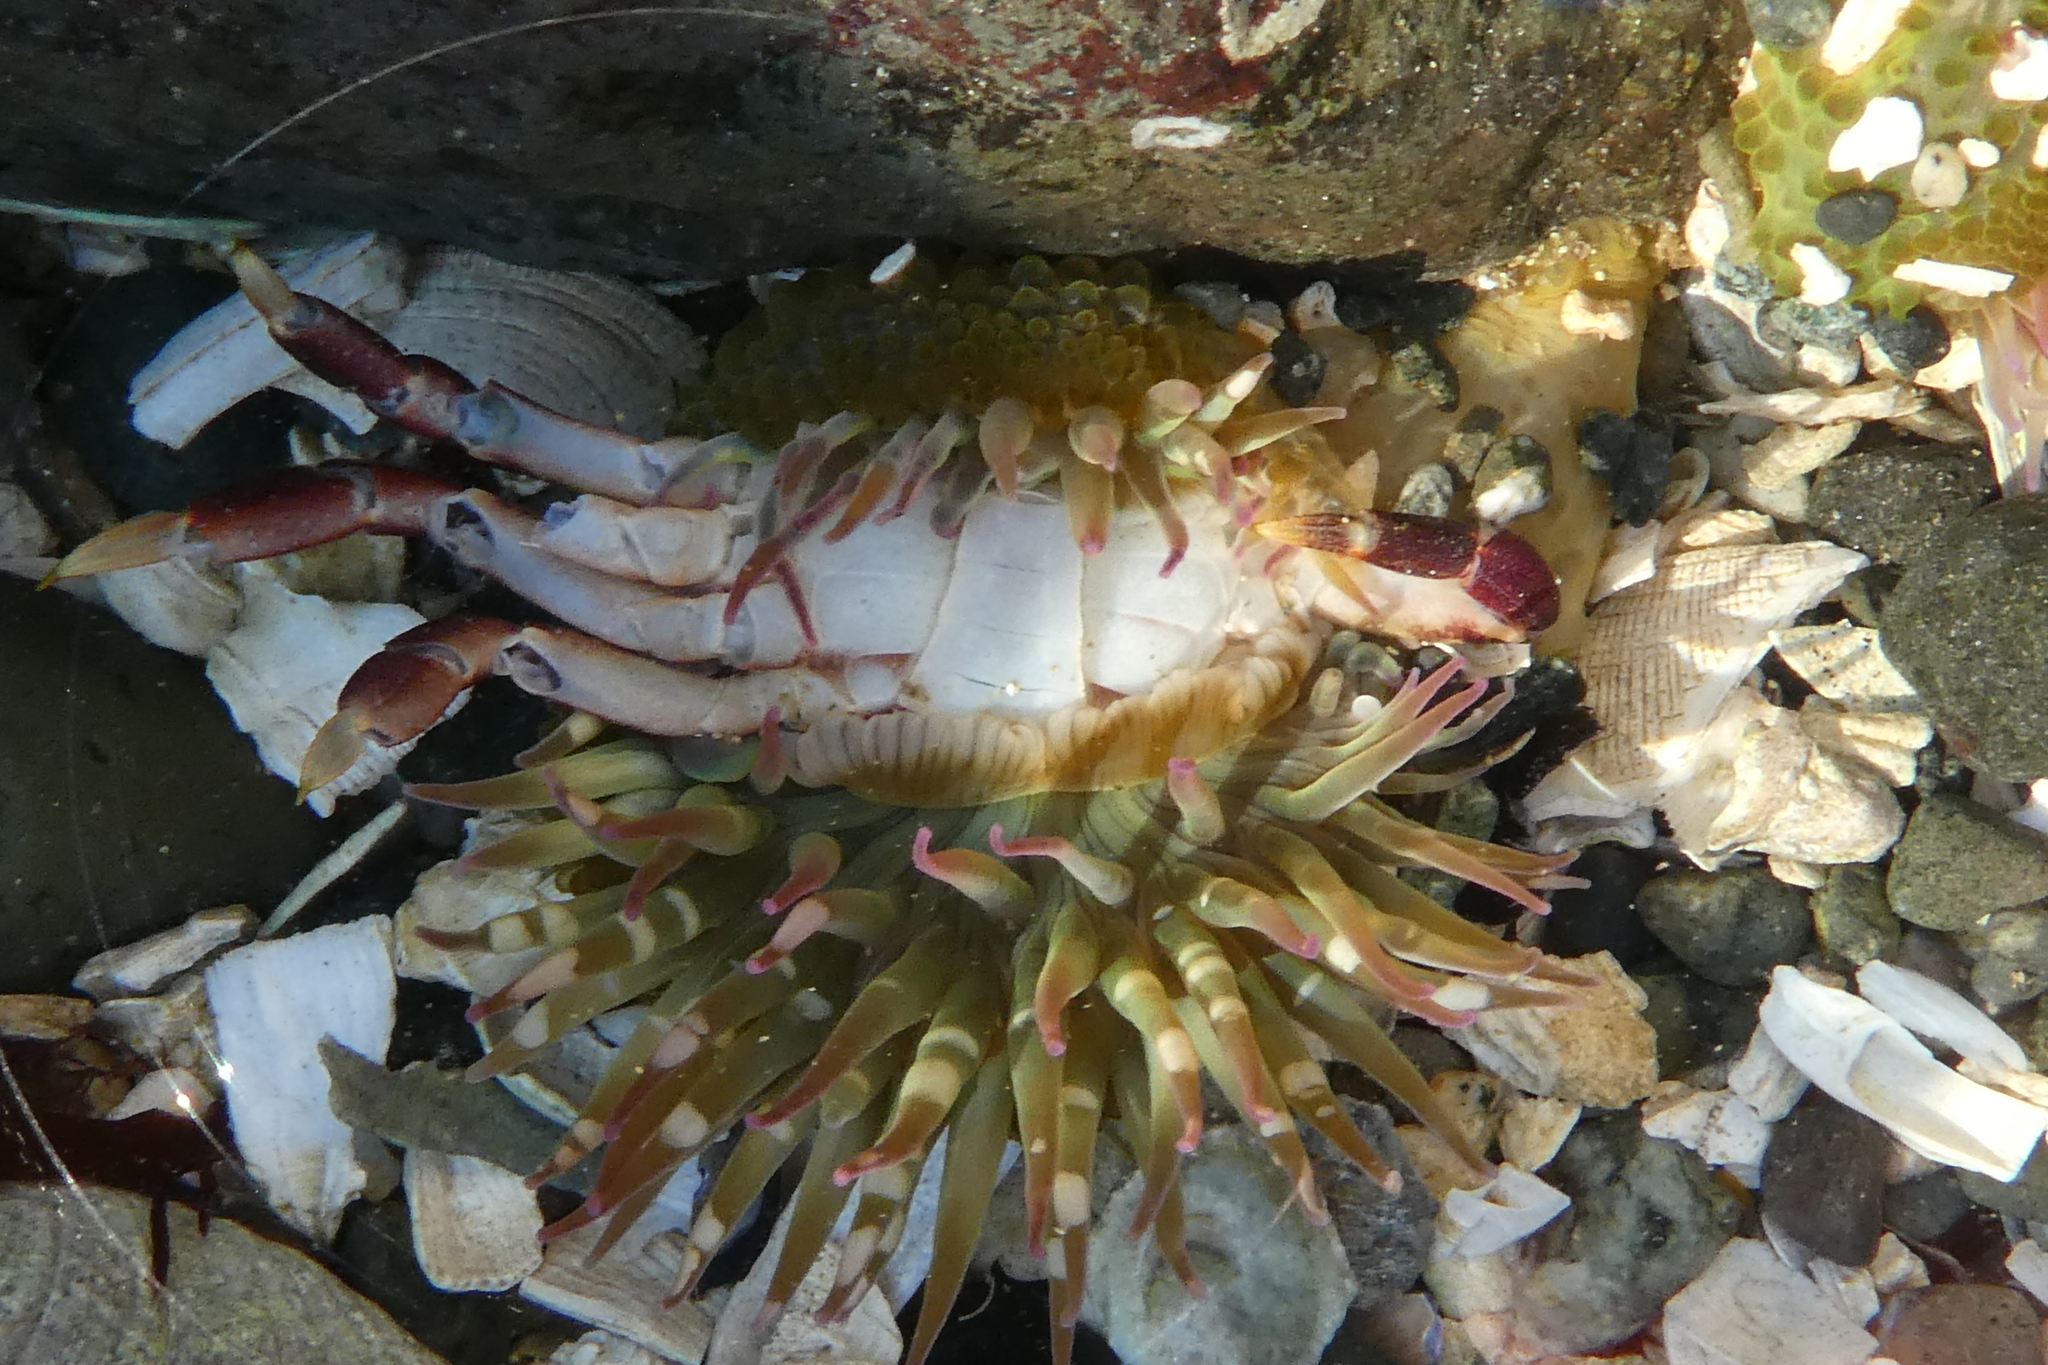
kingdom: Animalia
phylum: Cnidaria
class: Anthozoa
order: Actiniaria
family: Actiniidae
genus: Anthopleura
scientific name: Anthopleura elegantissima
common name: Clonal anemone
